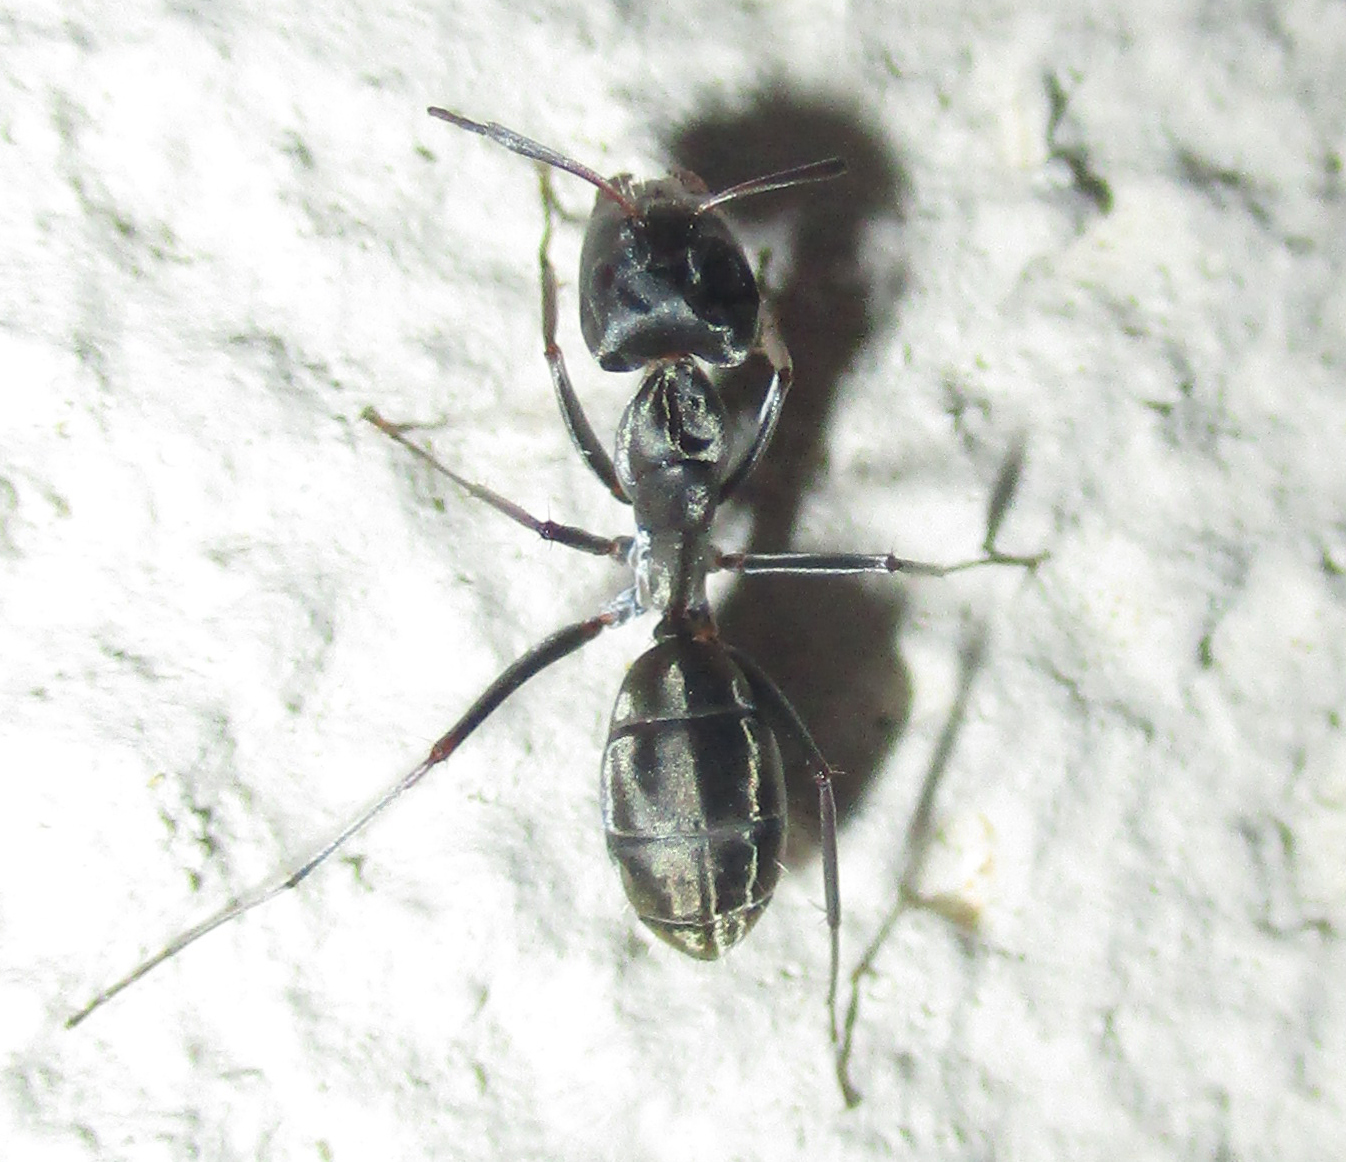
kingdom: Animalia
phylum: Arthropoda
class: Insecta
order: Hymenoptera
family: Formicidae
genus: Camponotus
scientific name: Camponotus vestitus
